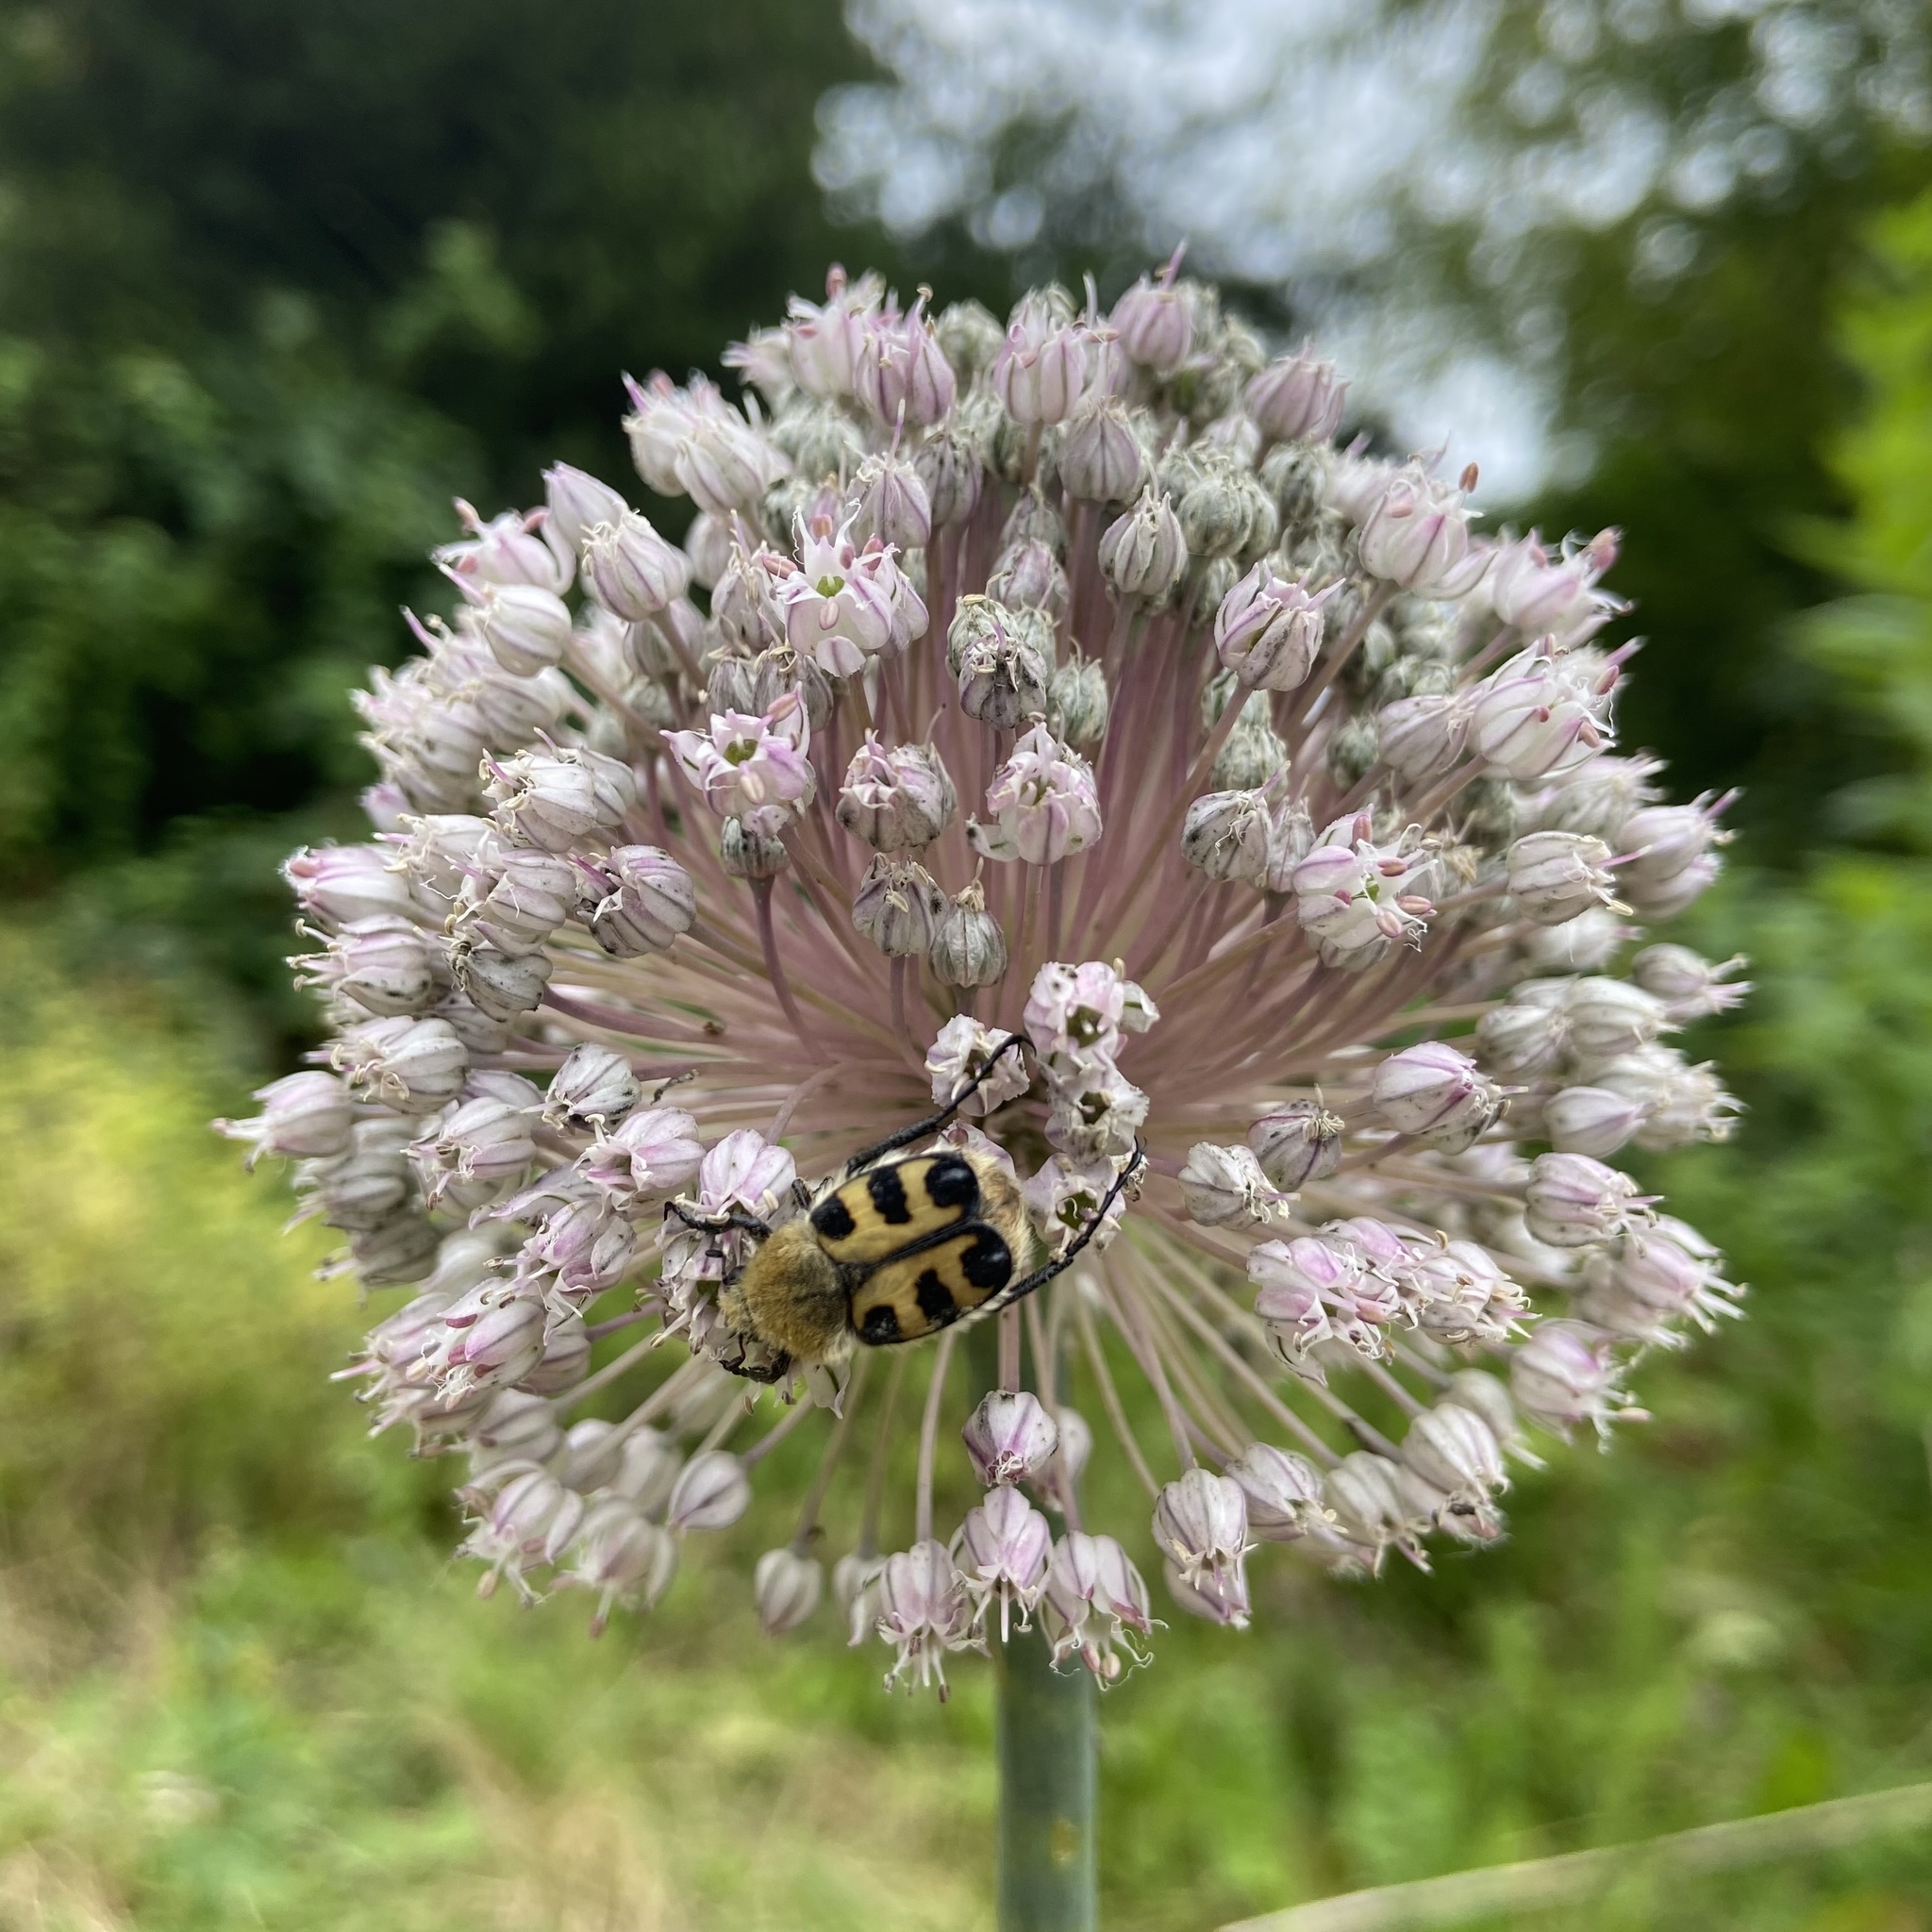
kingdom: Animalia
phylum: Arthropoda
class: Insecta
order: Coleoptera
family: Scarabaeidae
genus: Trichius
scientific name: Trichius gallicus
